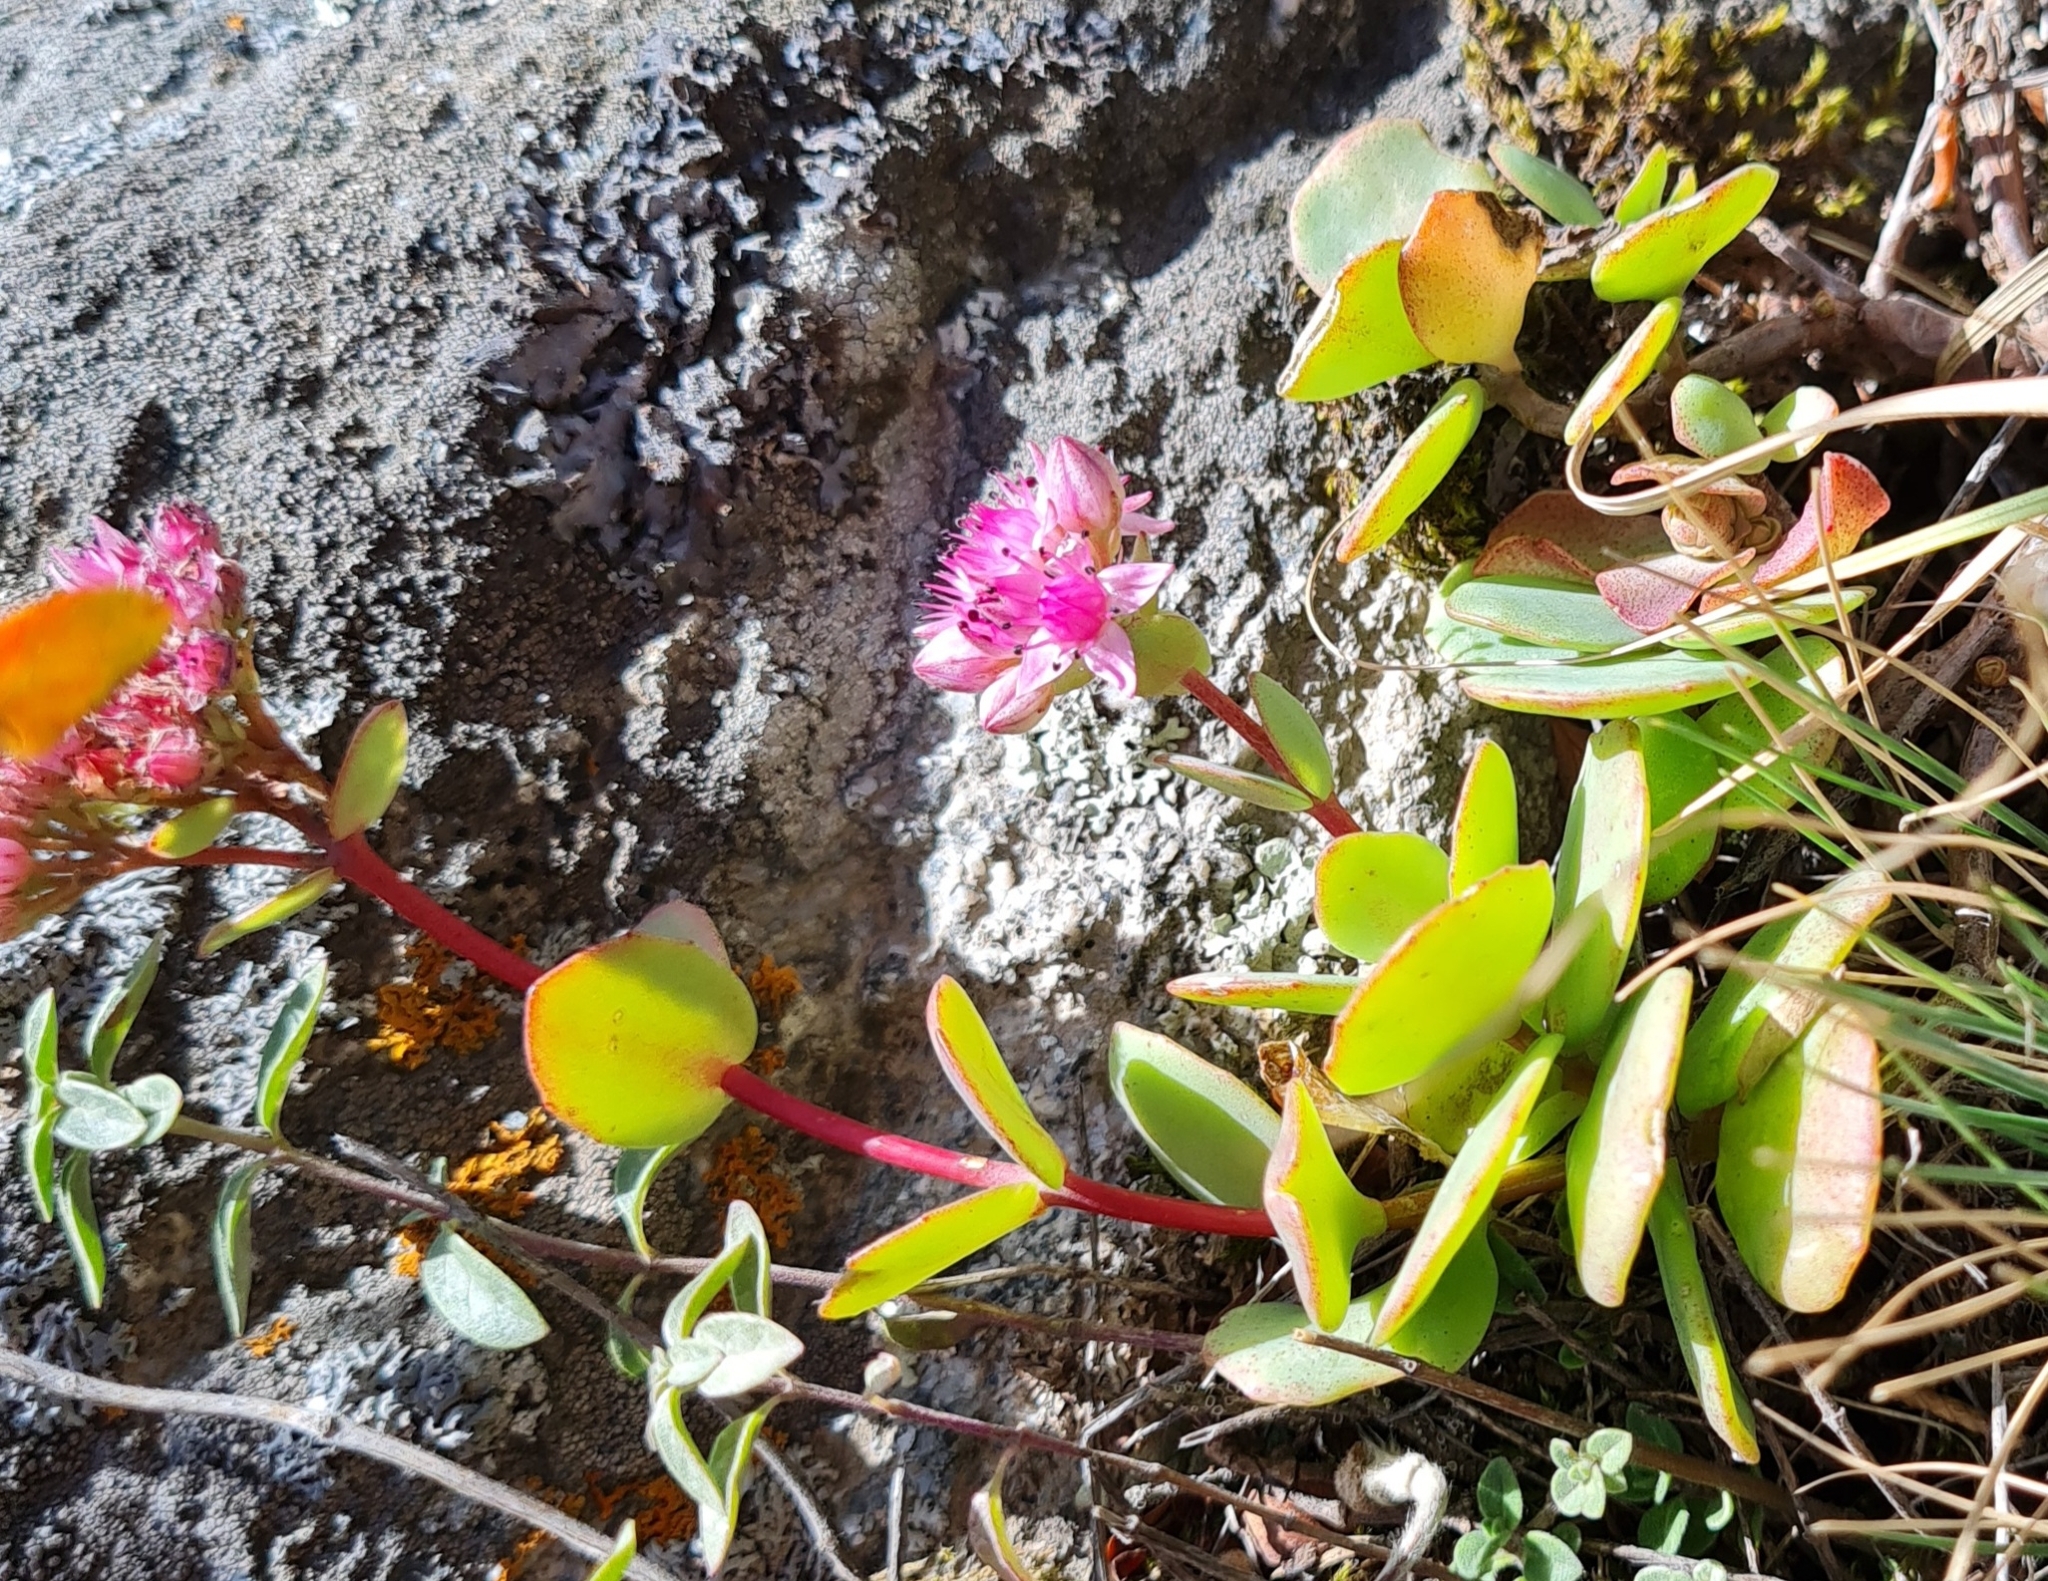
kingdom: Plantae
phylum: Tracheophyta
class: Magnoliopsida
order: Saxifragales
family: Crassulaceae
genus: Hylotelephium
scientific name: Hylotelephium ewersii
